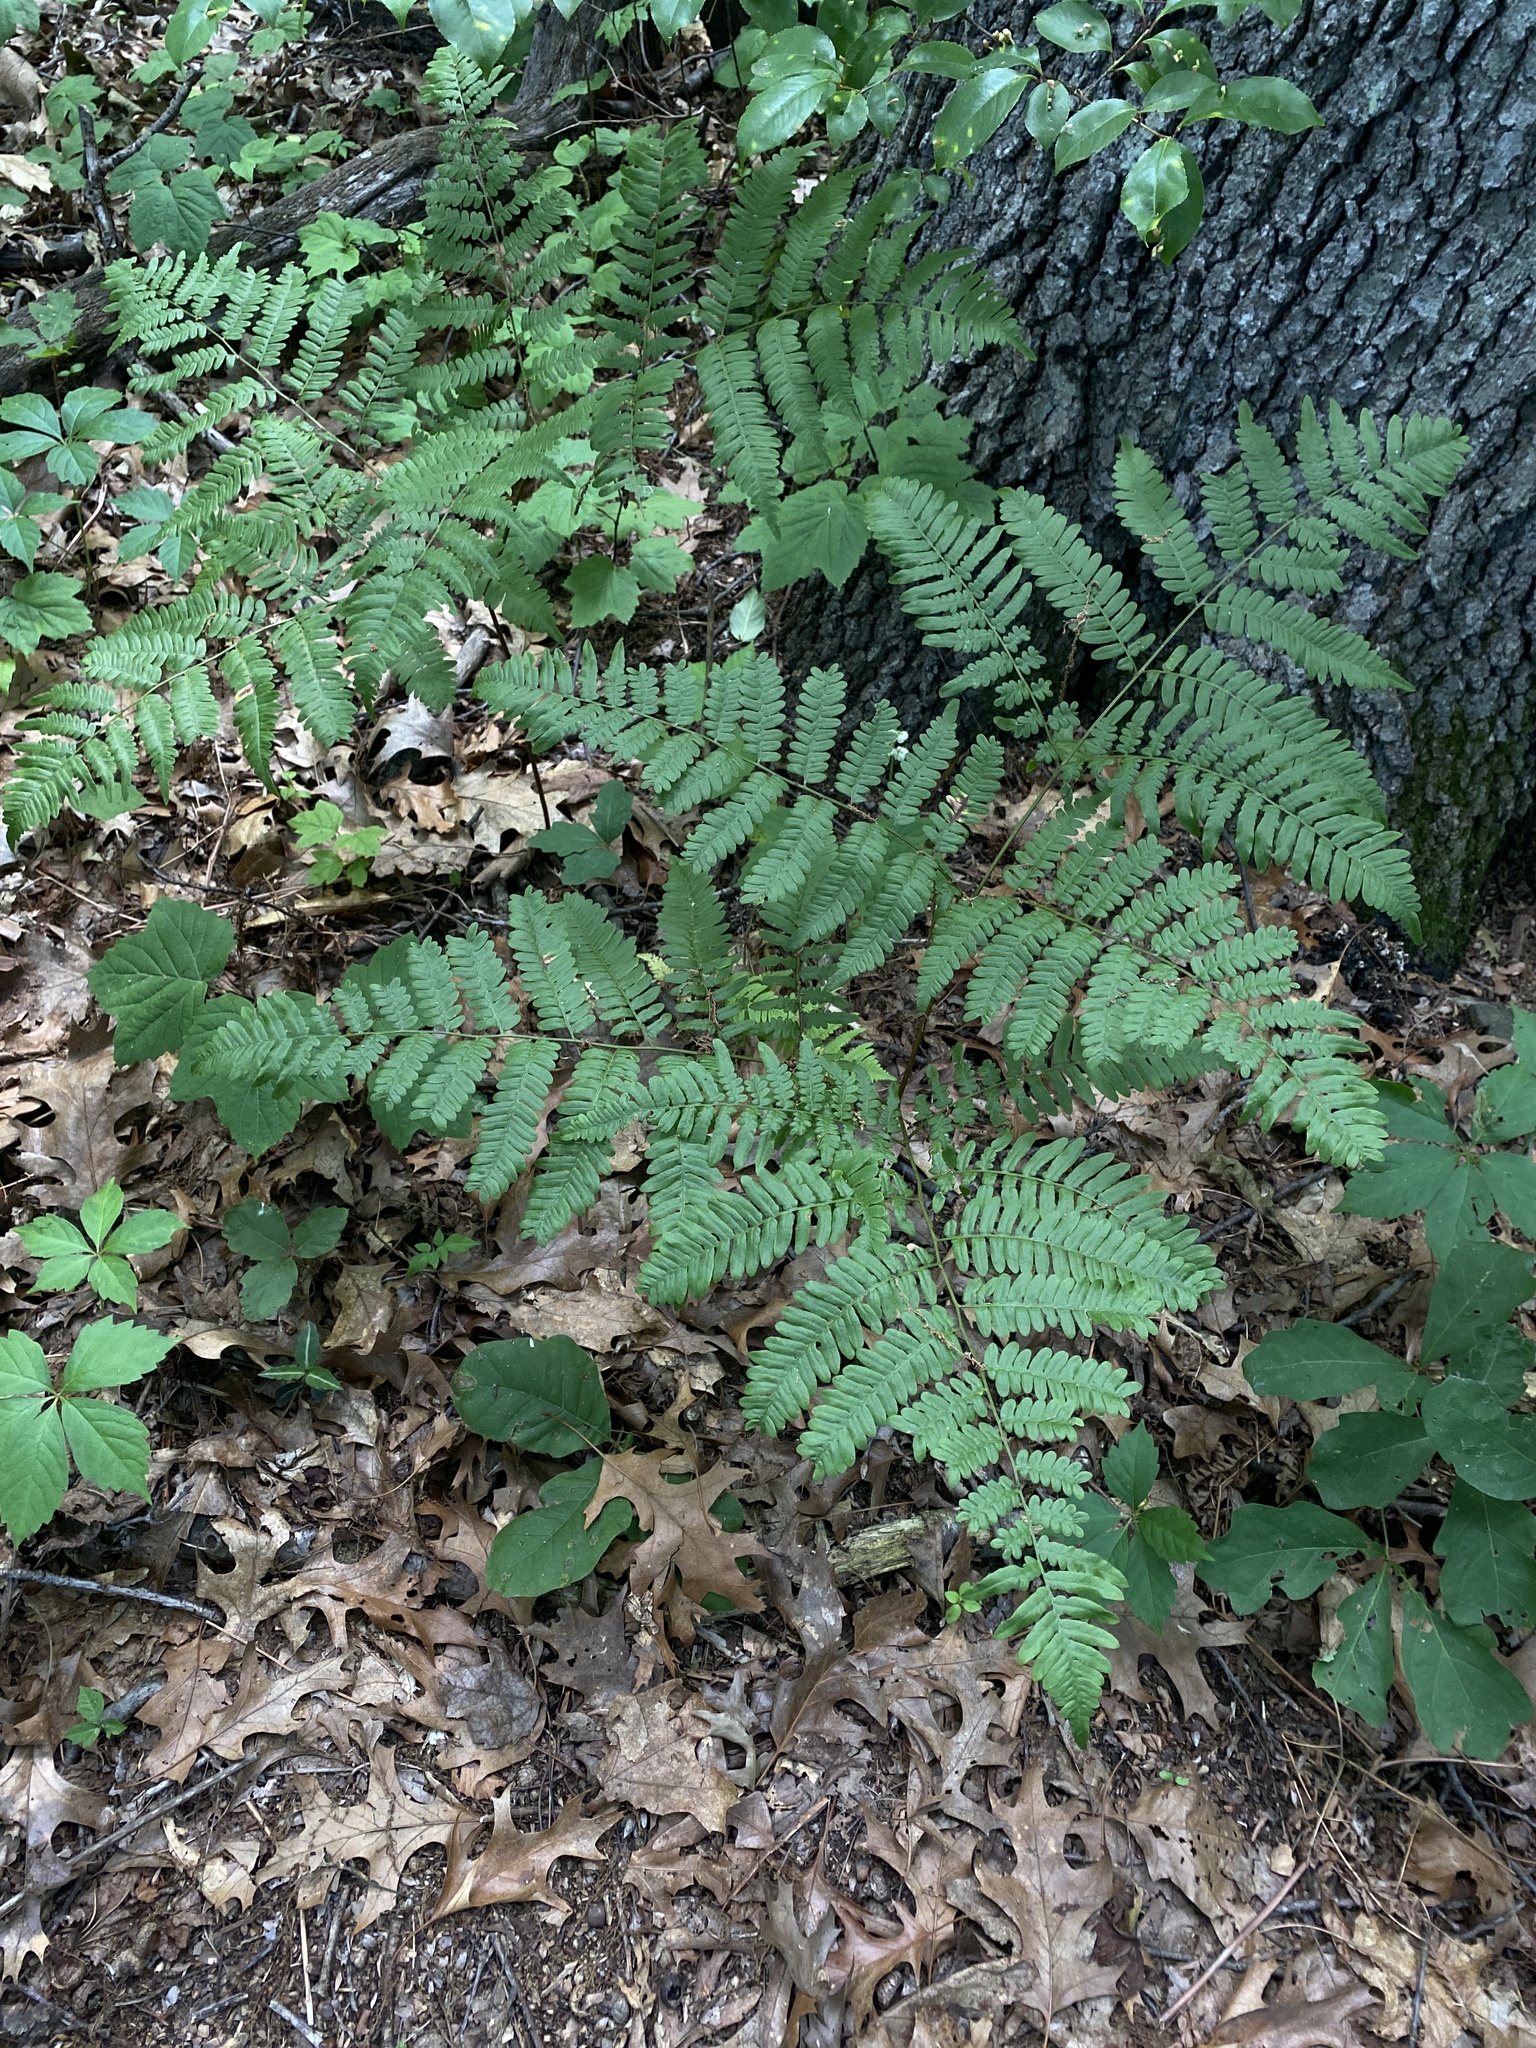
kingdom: Plantae
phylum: Tracheophyta
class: Polypodiopsida
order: Polypodiales
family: Dennstaedtiaceae
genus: Pteridium
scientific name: Pteridium aquilinum
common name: Bracken
